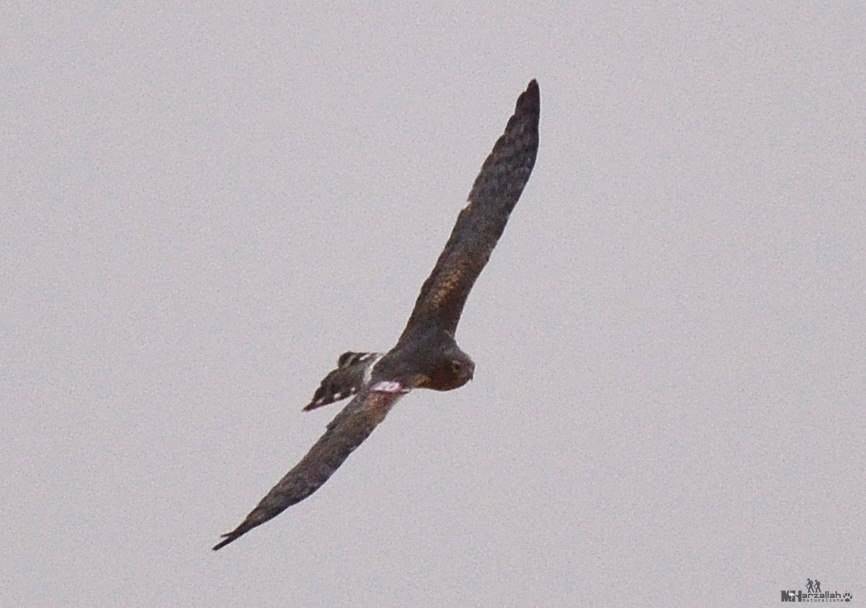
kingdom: Animalia
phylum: Chordata
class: Aves
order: Accipitriformes
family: Accipitridae
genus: Circus
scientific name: Circus pygargus
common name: Montagu's harrier
